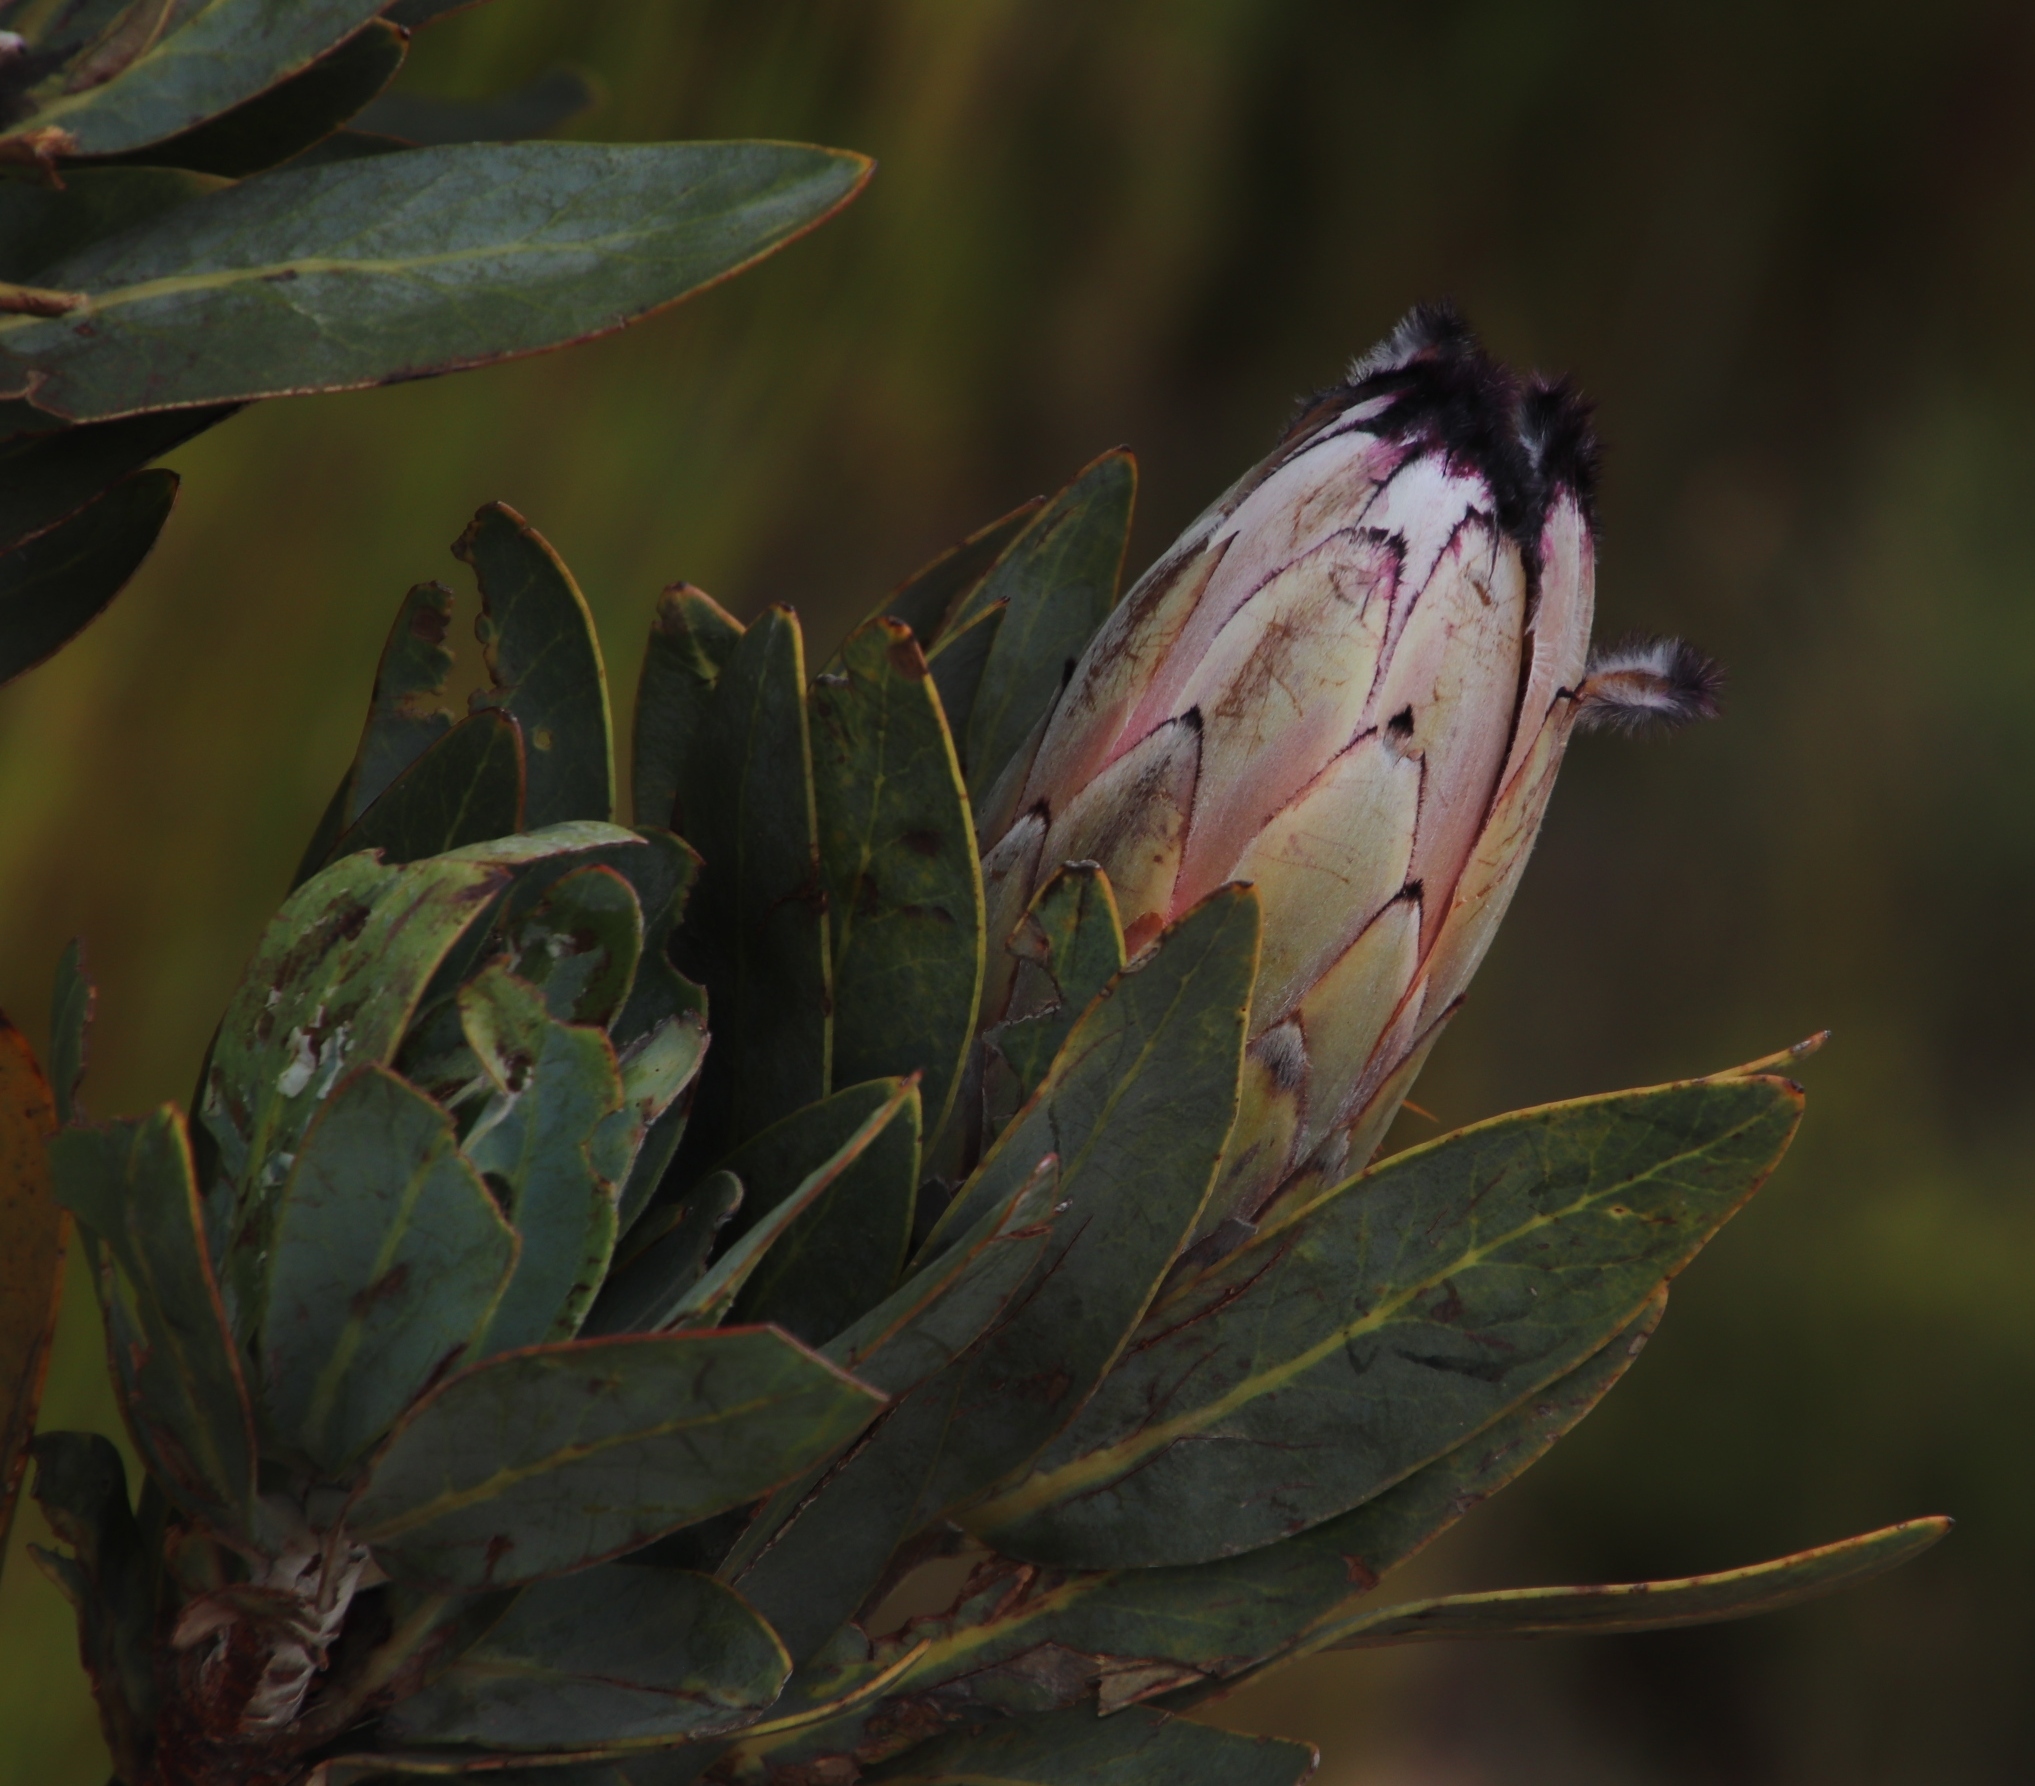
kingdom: Plantae
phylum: Tracheophyta
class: Magnoliopsida
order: Proteales
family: Proteaceae
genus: Protea
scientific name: Protea laurifolia
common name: Grey-leaf sugarbsh
